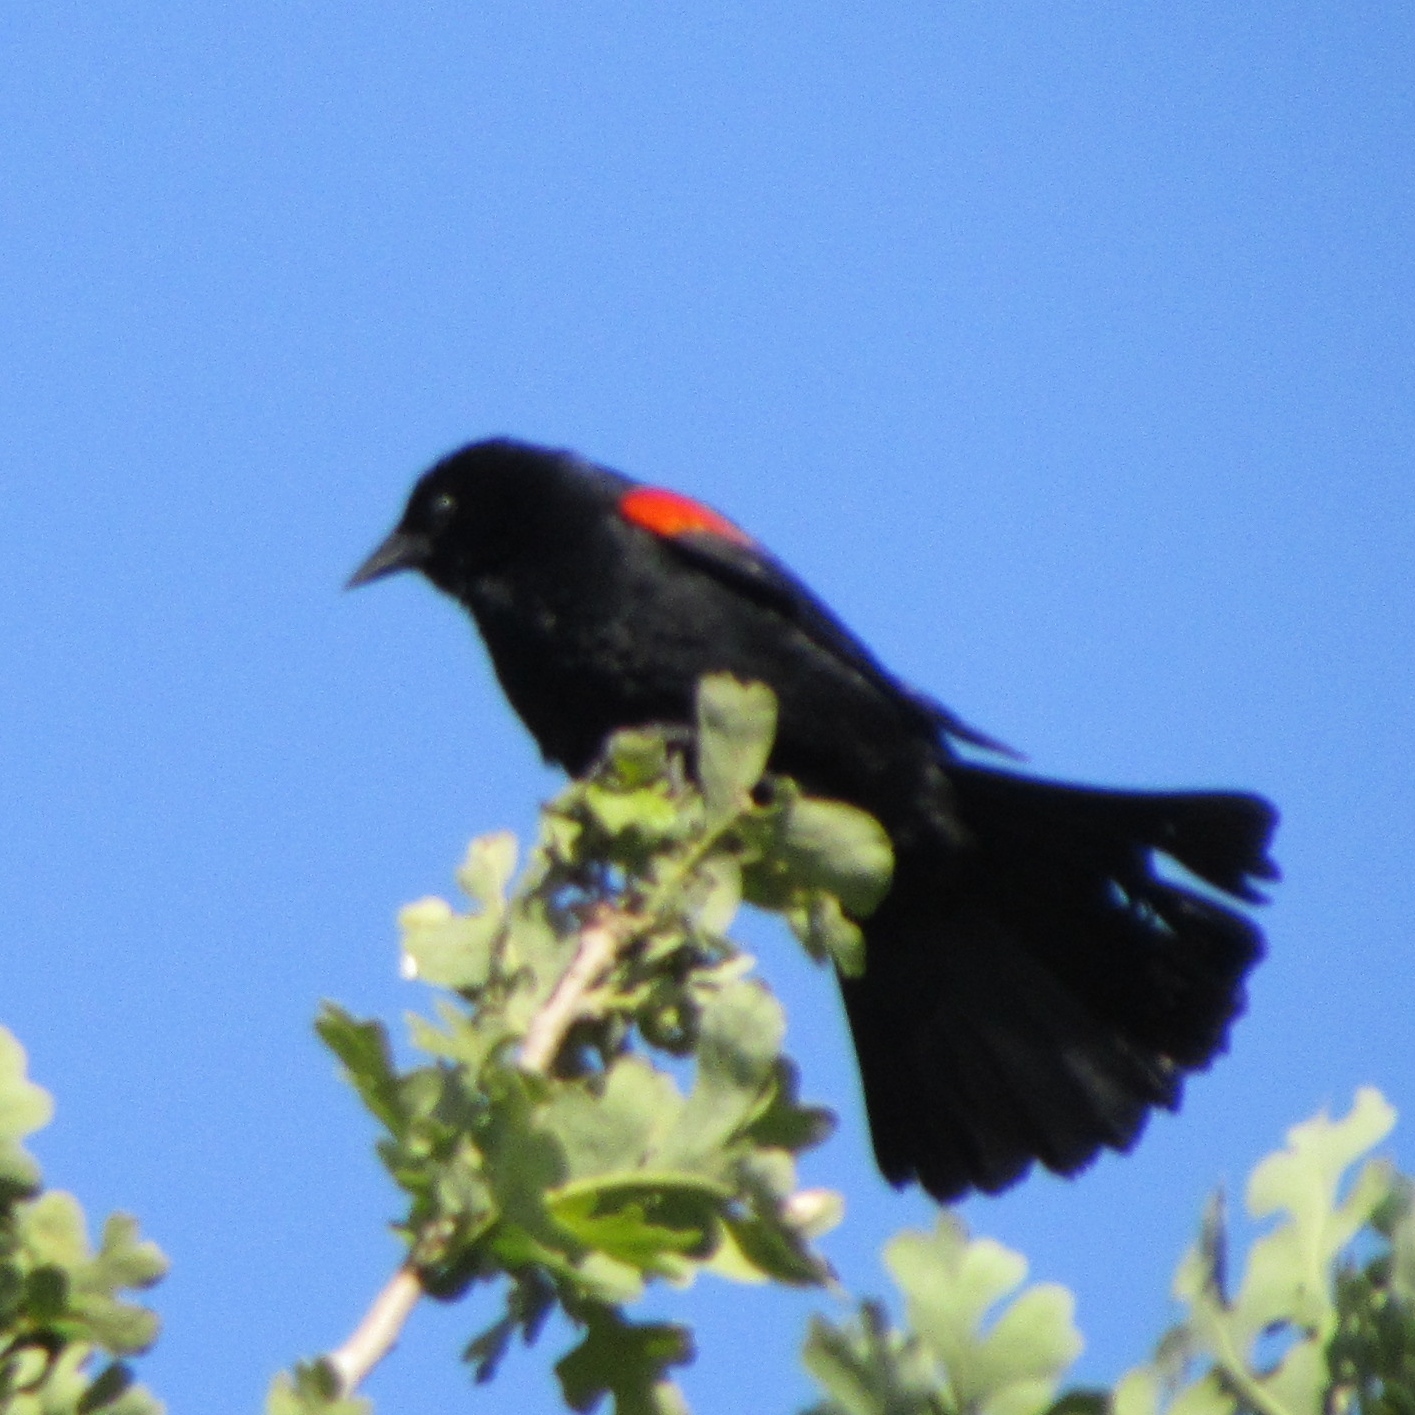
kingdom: Animalia
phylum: Chordata
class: Aves
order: Passeriformes
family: Icteridae
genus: Agelaius
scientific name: Agelaius phoeniceus
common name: Red-winged blackbird
